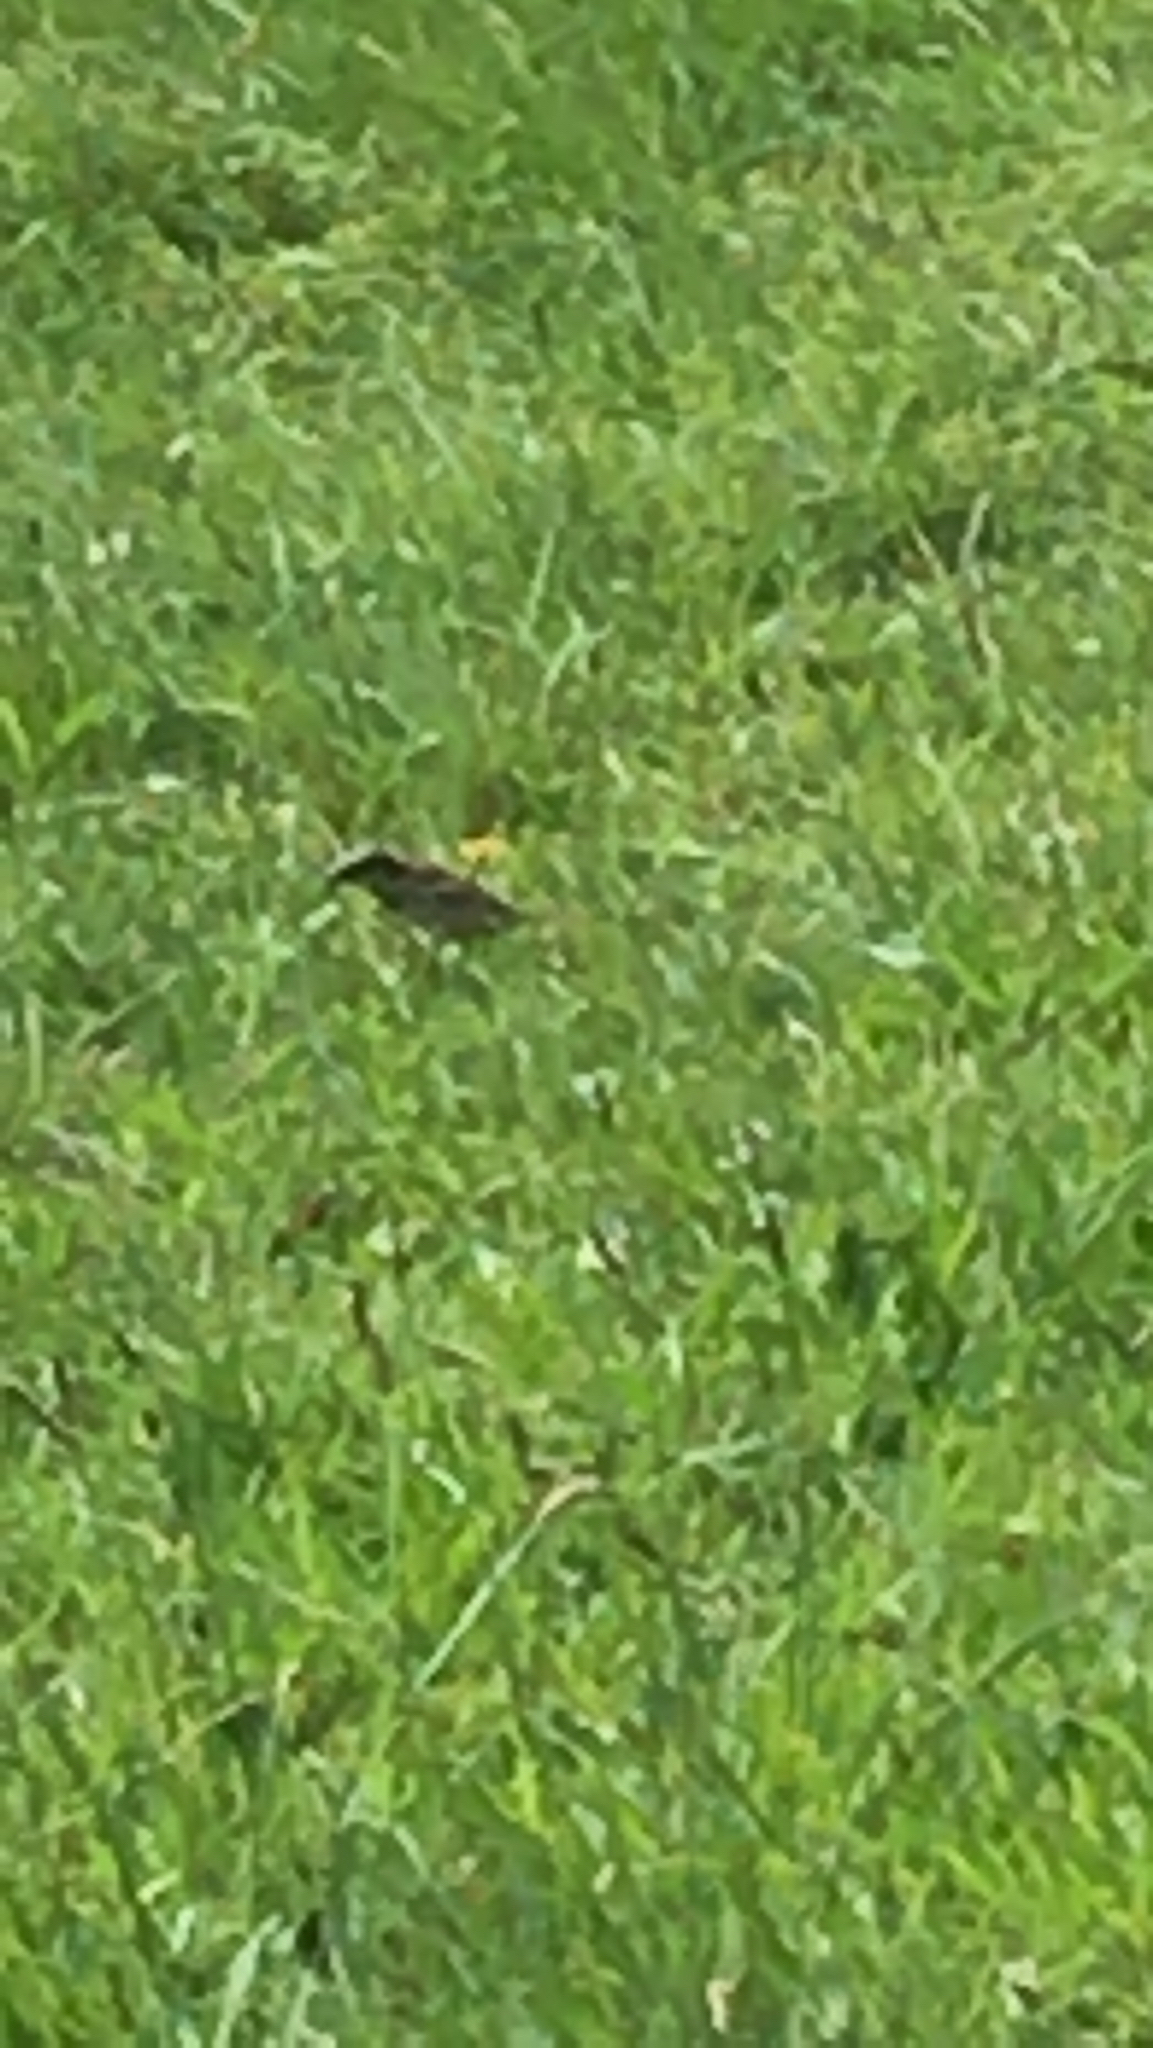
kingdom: Animalia
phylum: Chordata
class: Aves
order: Passeriformes
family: Passeridae
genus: Passer
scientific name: Passer domesticus
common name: House sparrow
